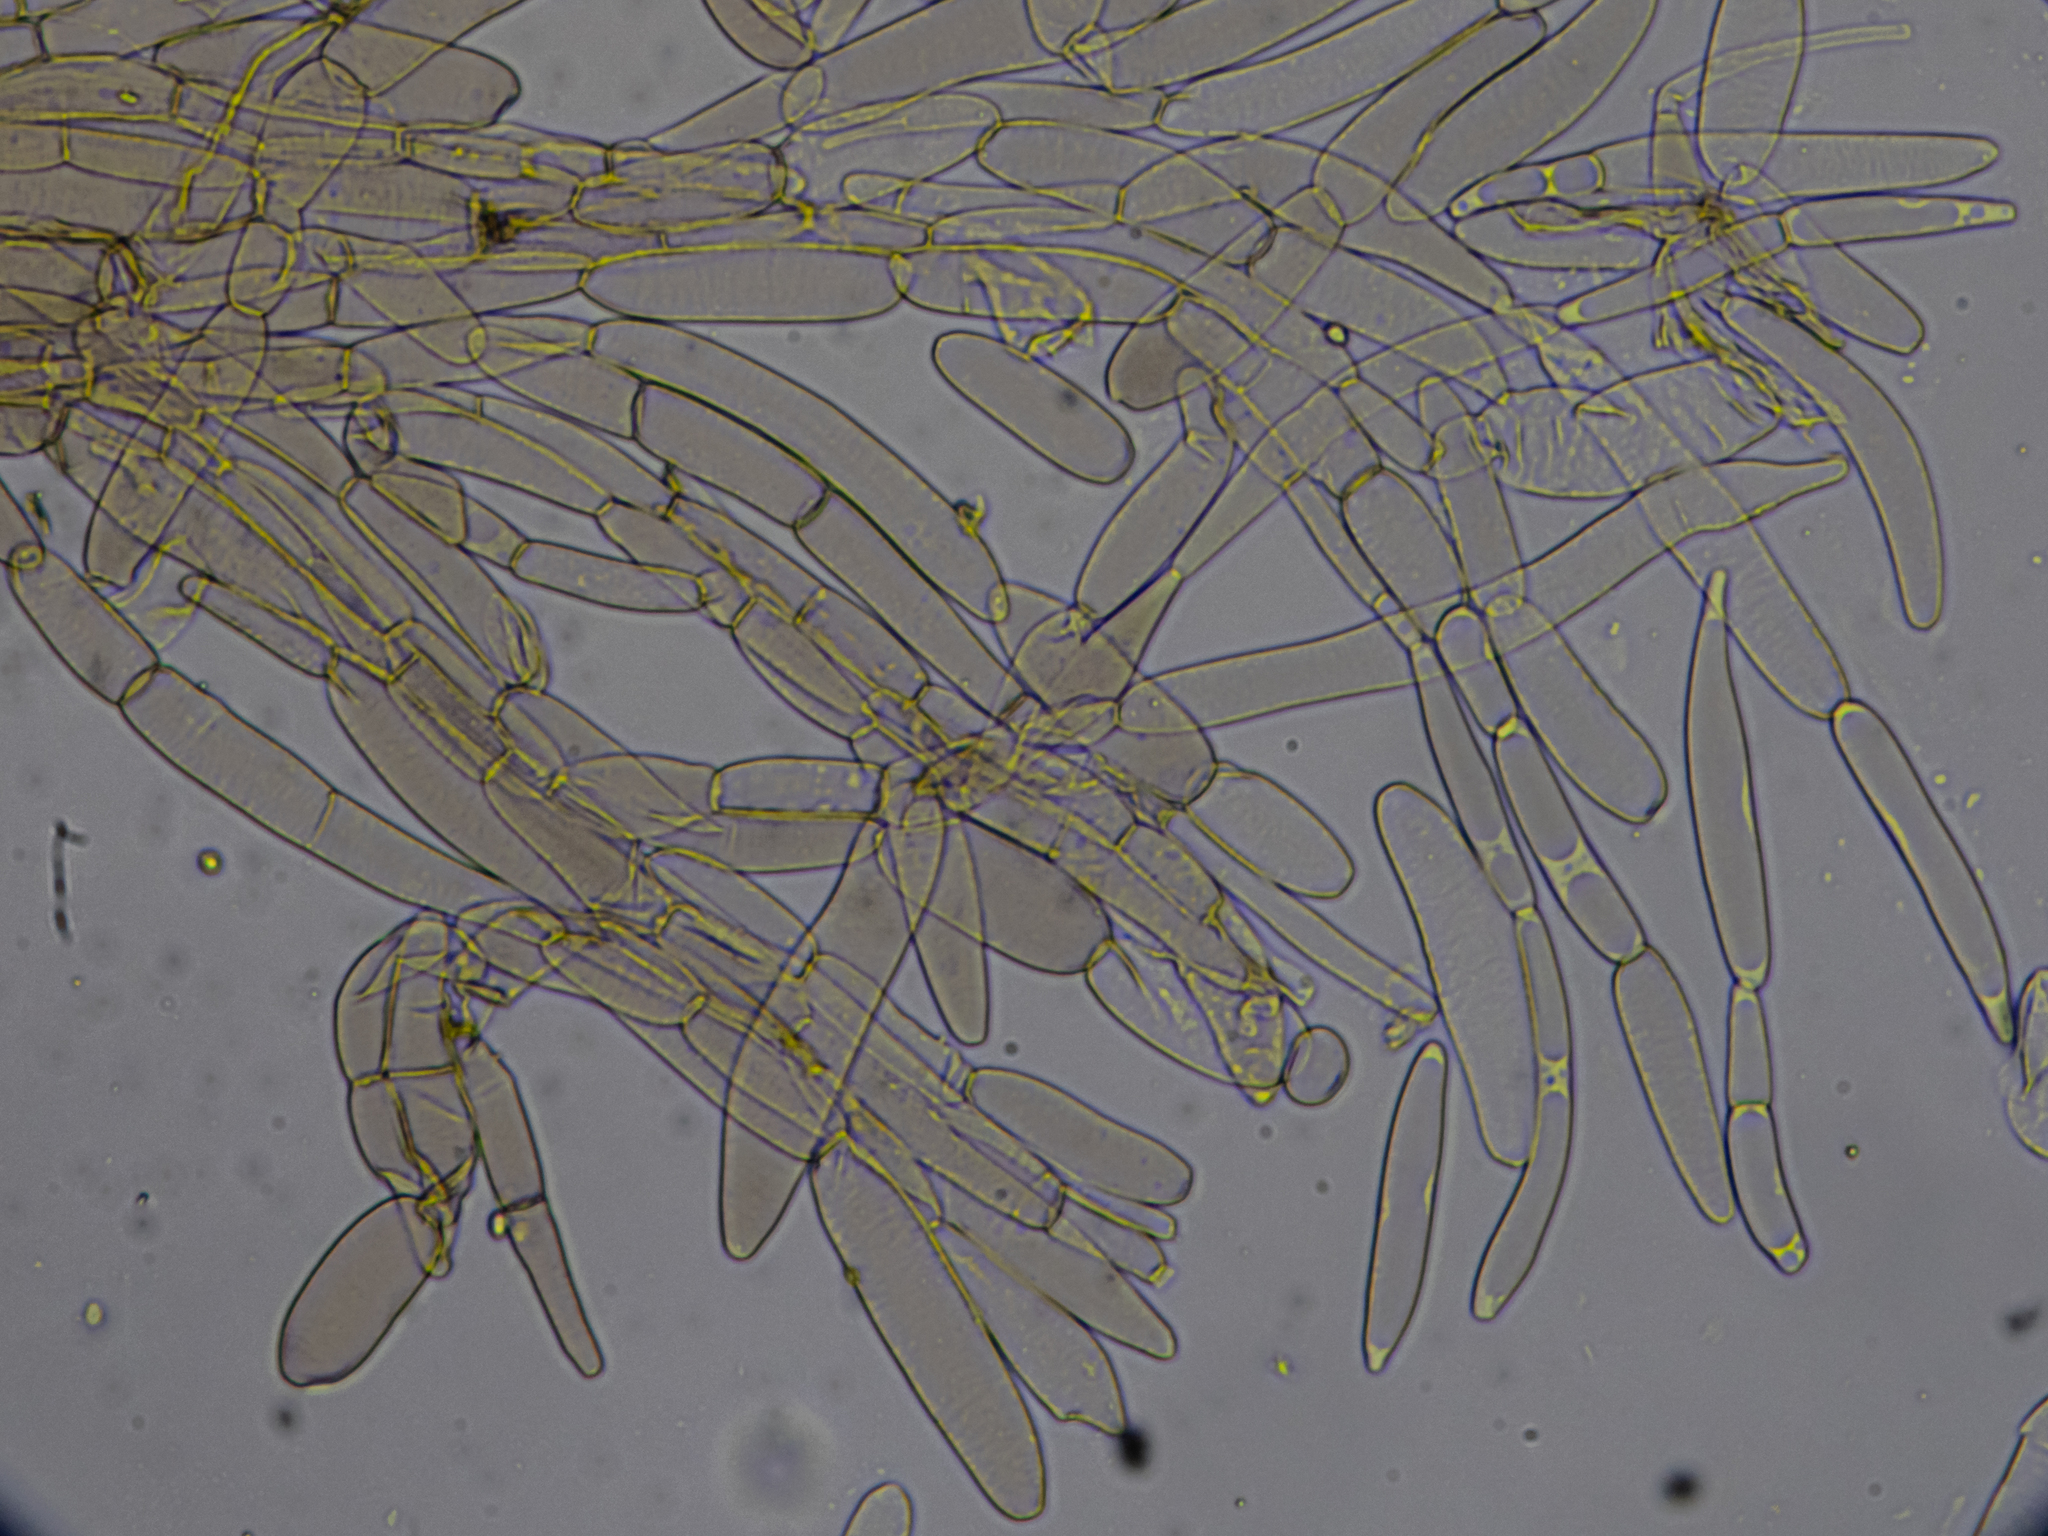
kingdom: Fungi
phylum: Basidiomycota
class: Agaricomycetes
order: Agaricales
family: Physalacriaceae
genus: Armillaria
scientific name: Armillaria ostoyae
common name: Dark honey fungus
